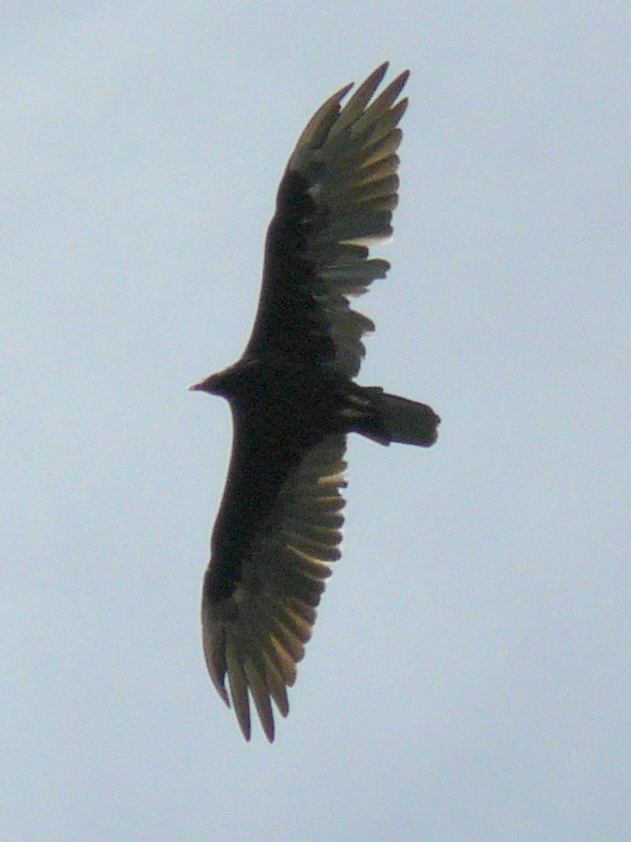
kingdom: Animalia
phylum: Chordata
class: Aves
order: Accipitriformes
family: Cathartidae
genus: Cathartes
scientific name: Cathartes aura
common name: Turkey vulture
